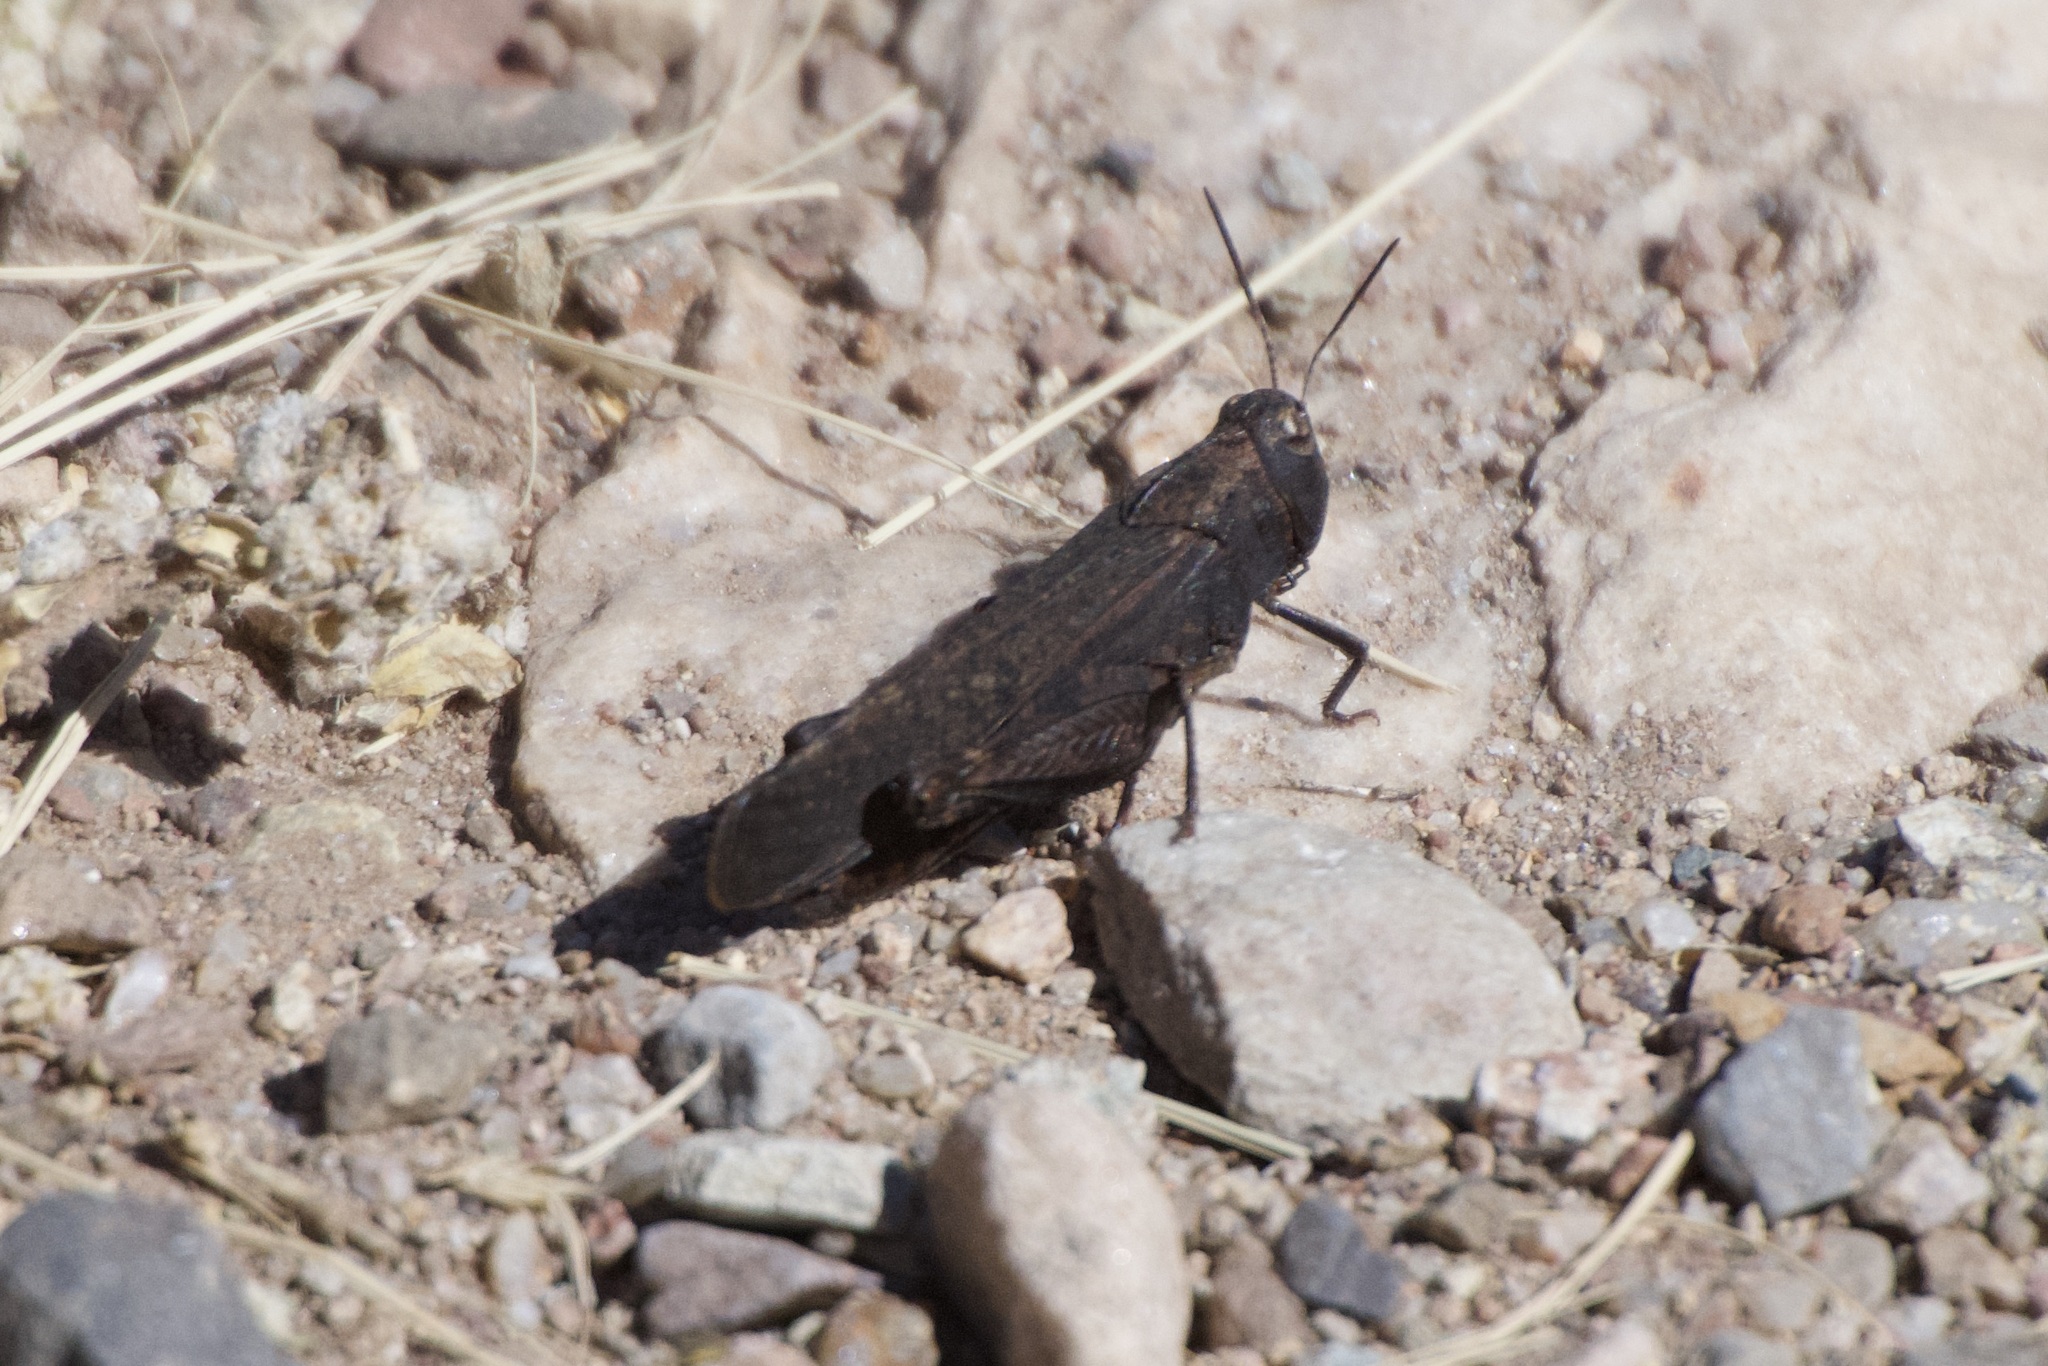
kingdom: Animalia
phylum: Arthropoda
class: Insecta
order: Orthoptera
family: Acrididae
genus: Arphia
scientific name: Arphia pseudo-nietana
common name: Red-winged grasshopper
